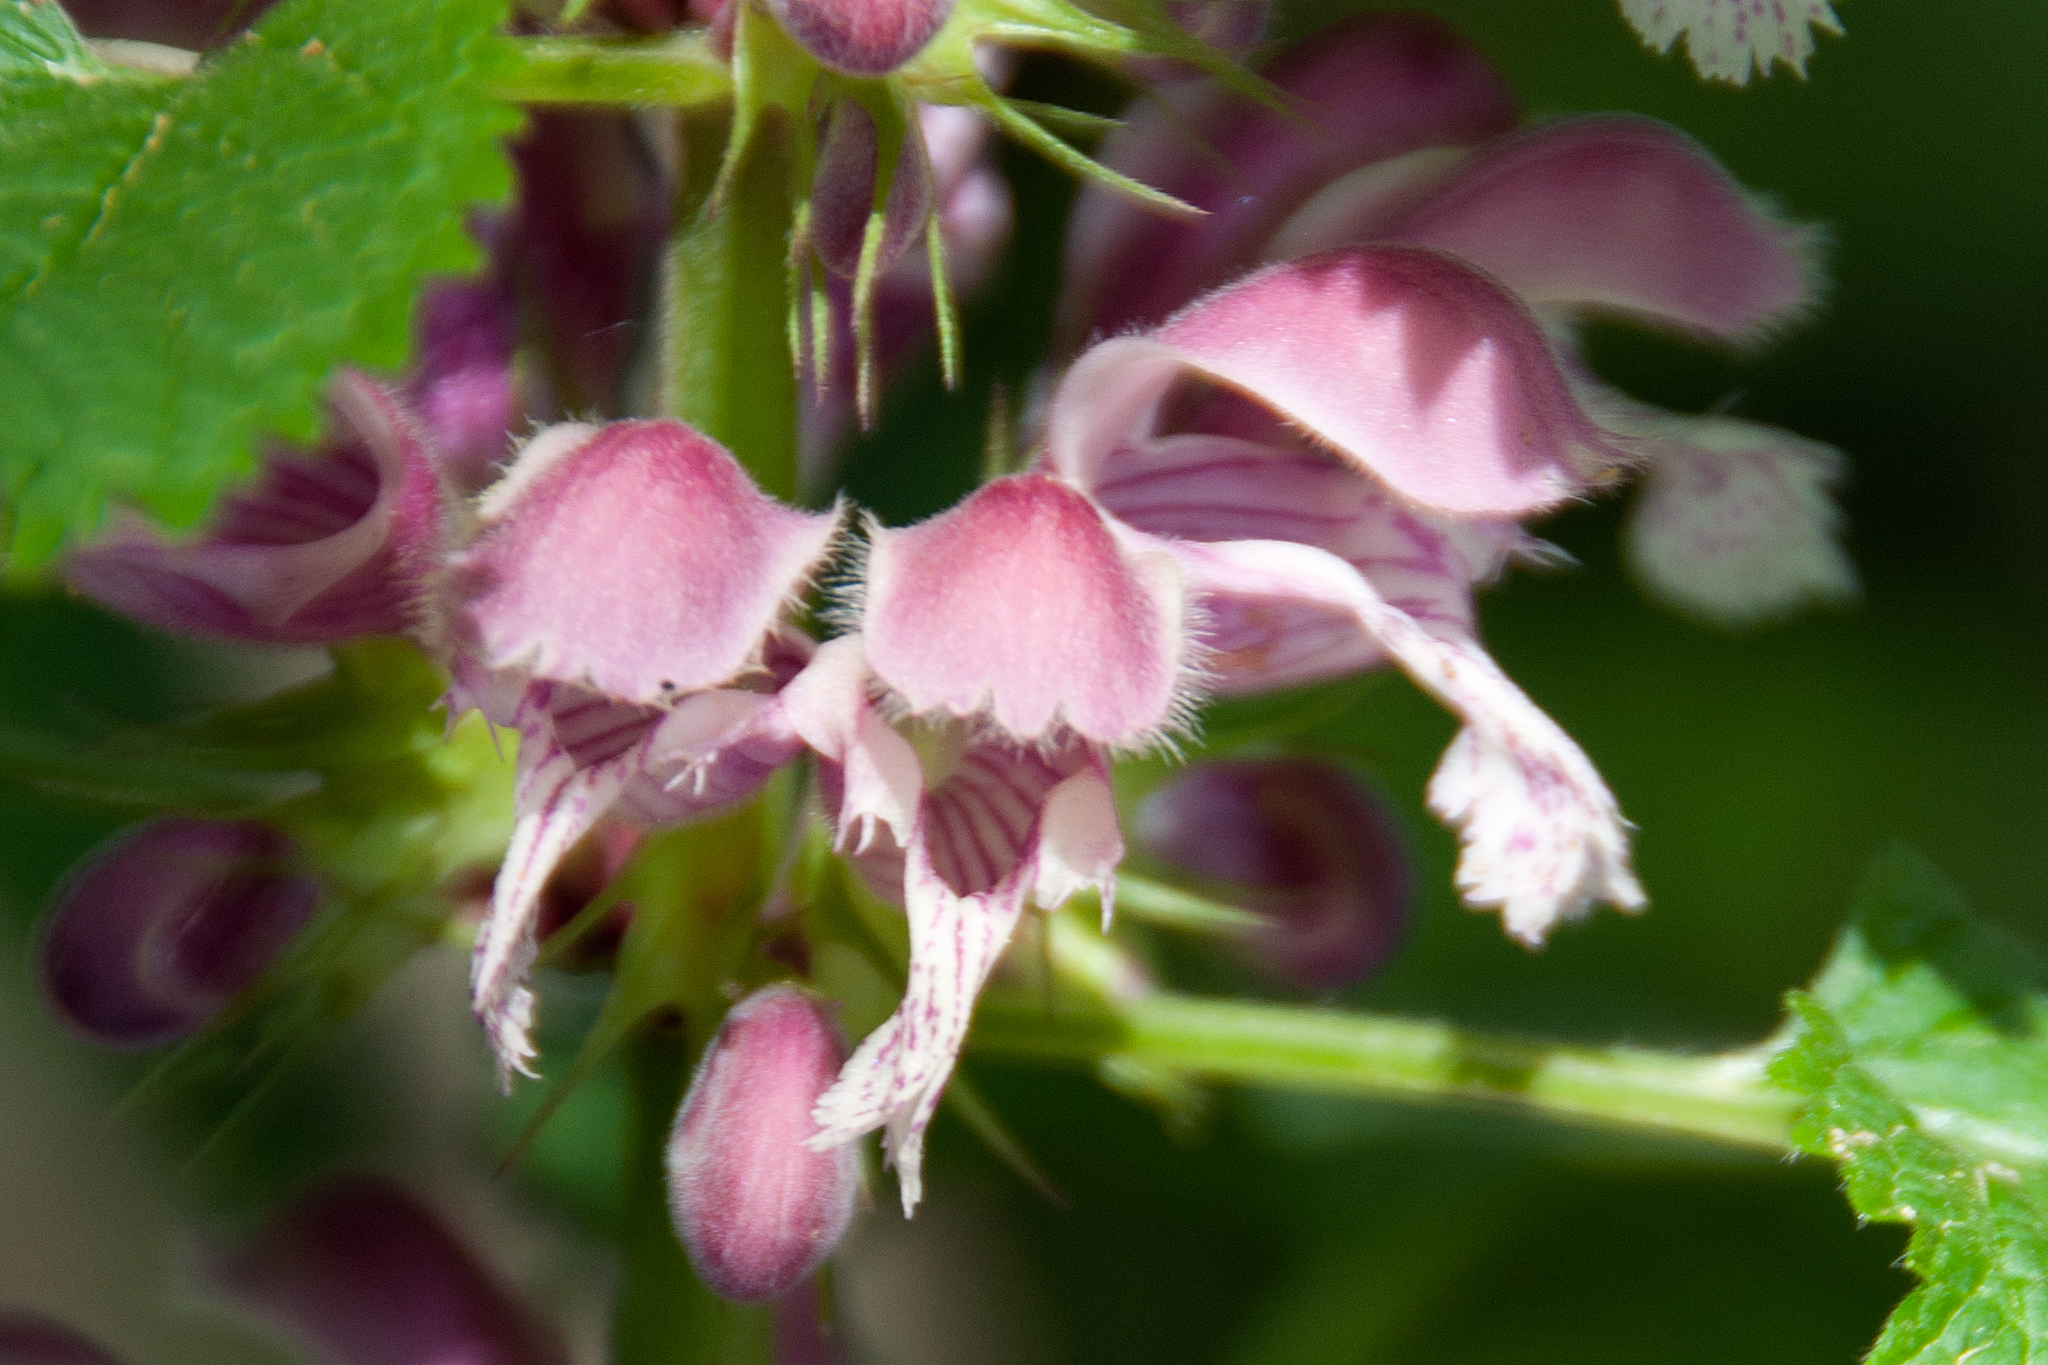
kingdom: Plantae
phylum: Tracheophyta
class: Magnoliopsida
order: Lamiales
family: Lamiaceae
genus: Lamium
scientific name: Lamium orvala
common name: Balm-leaved archangel
